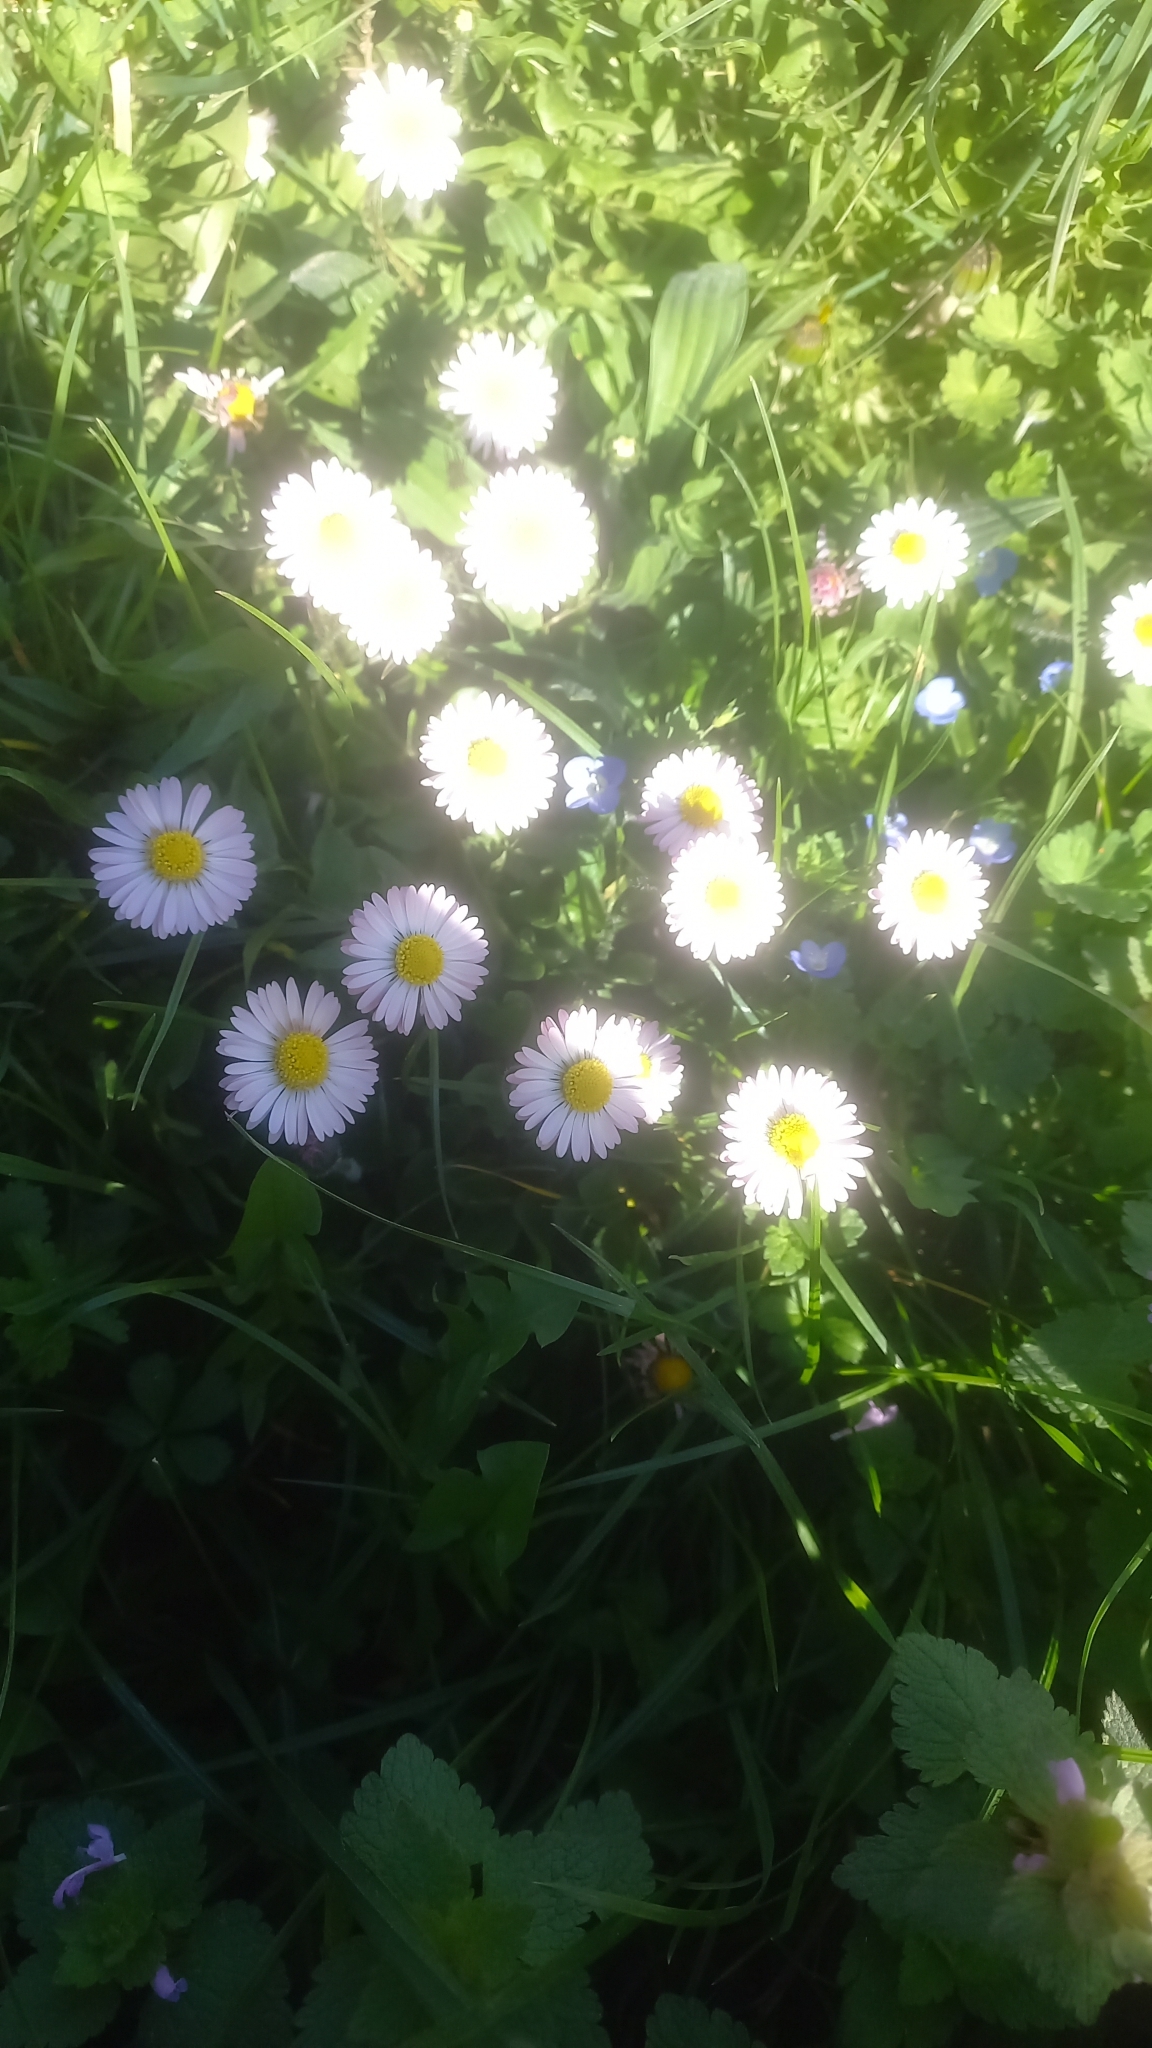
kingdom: Plantae
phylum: Tracheophyta
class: Magnoliopsida
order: Asterales
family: Asteraceae
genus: Bellis
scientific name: Bellis perennis
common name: Lawndaisy
